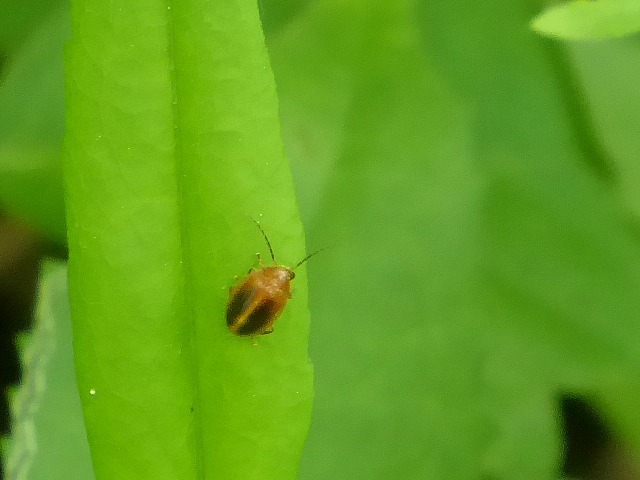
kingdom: Animalia
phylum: Arthropoda
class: Insecta
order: Coleoptera
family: Scirtidae
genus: Prionocyphon
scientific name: Prionocyphon limbatus
